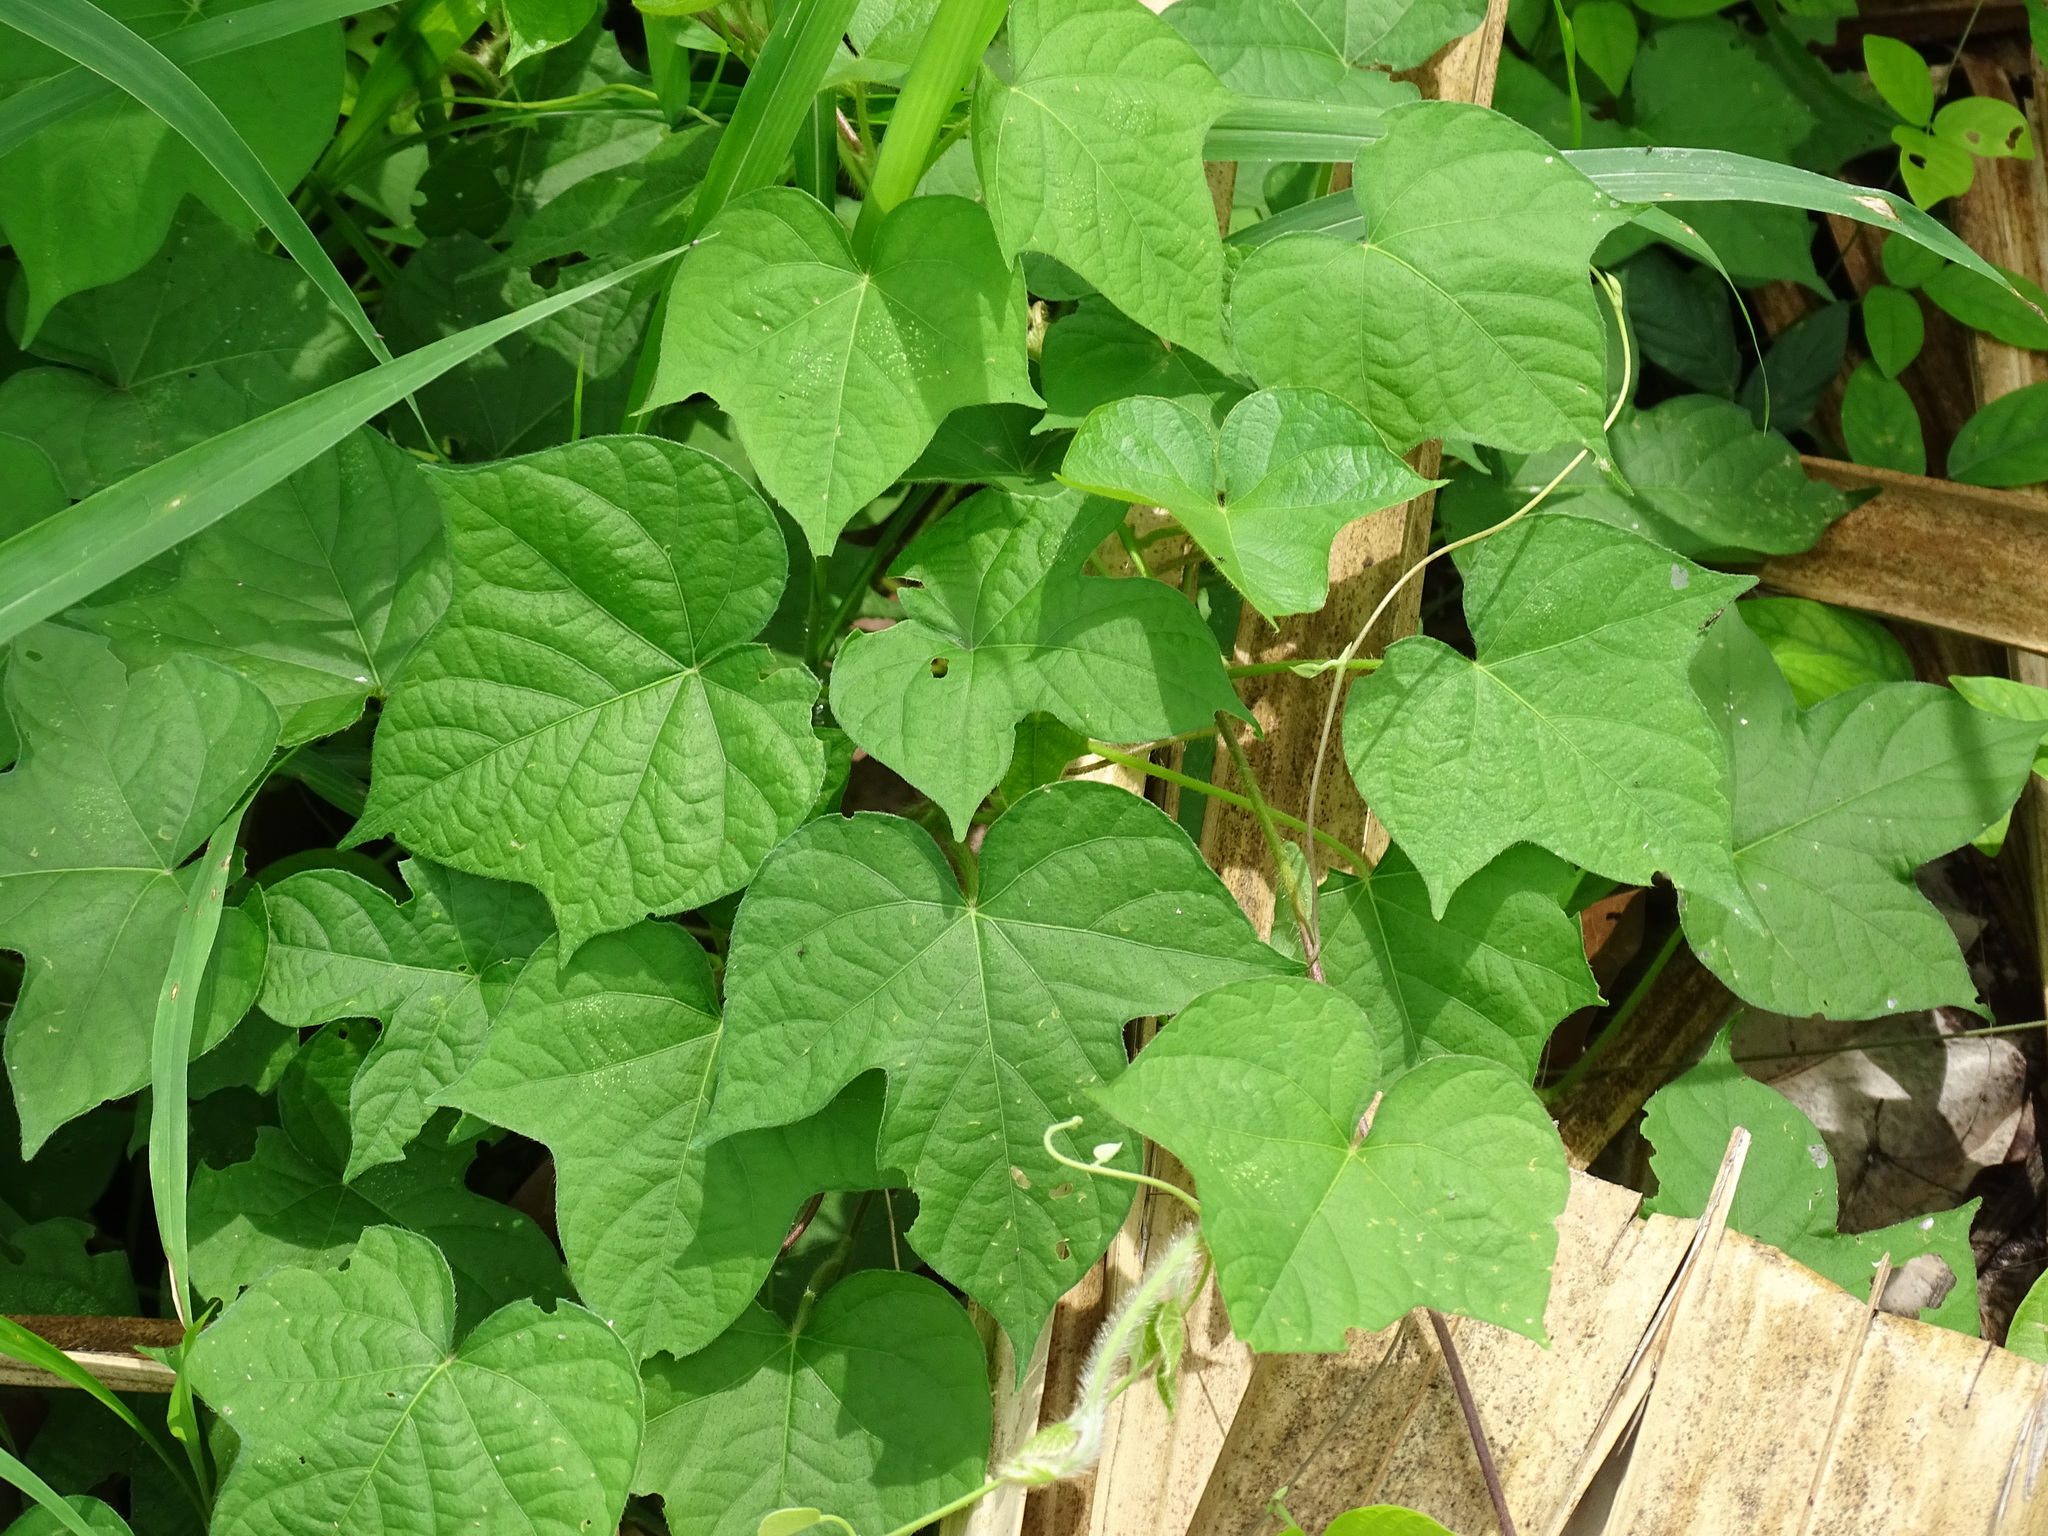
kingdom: Plantae
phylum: Tracheophyta
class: Magnoliopsida
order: Solanales
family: Convolvulaceae
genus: Ipomoea
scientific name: Ipomoea nil
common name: Japanese morning-glory
